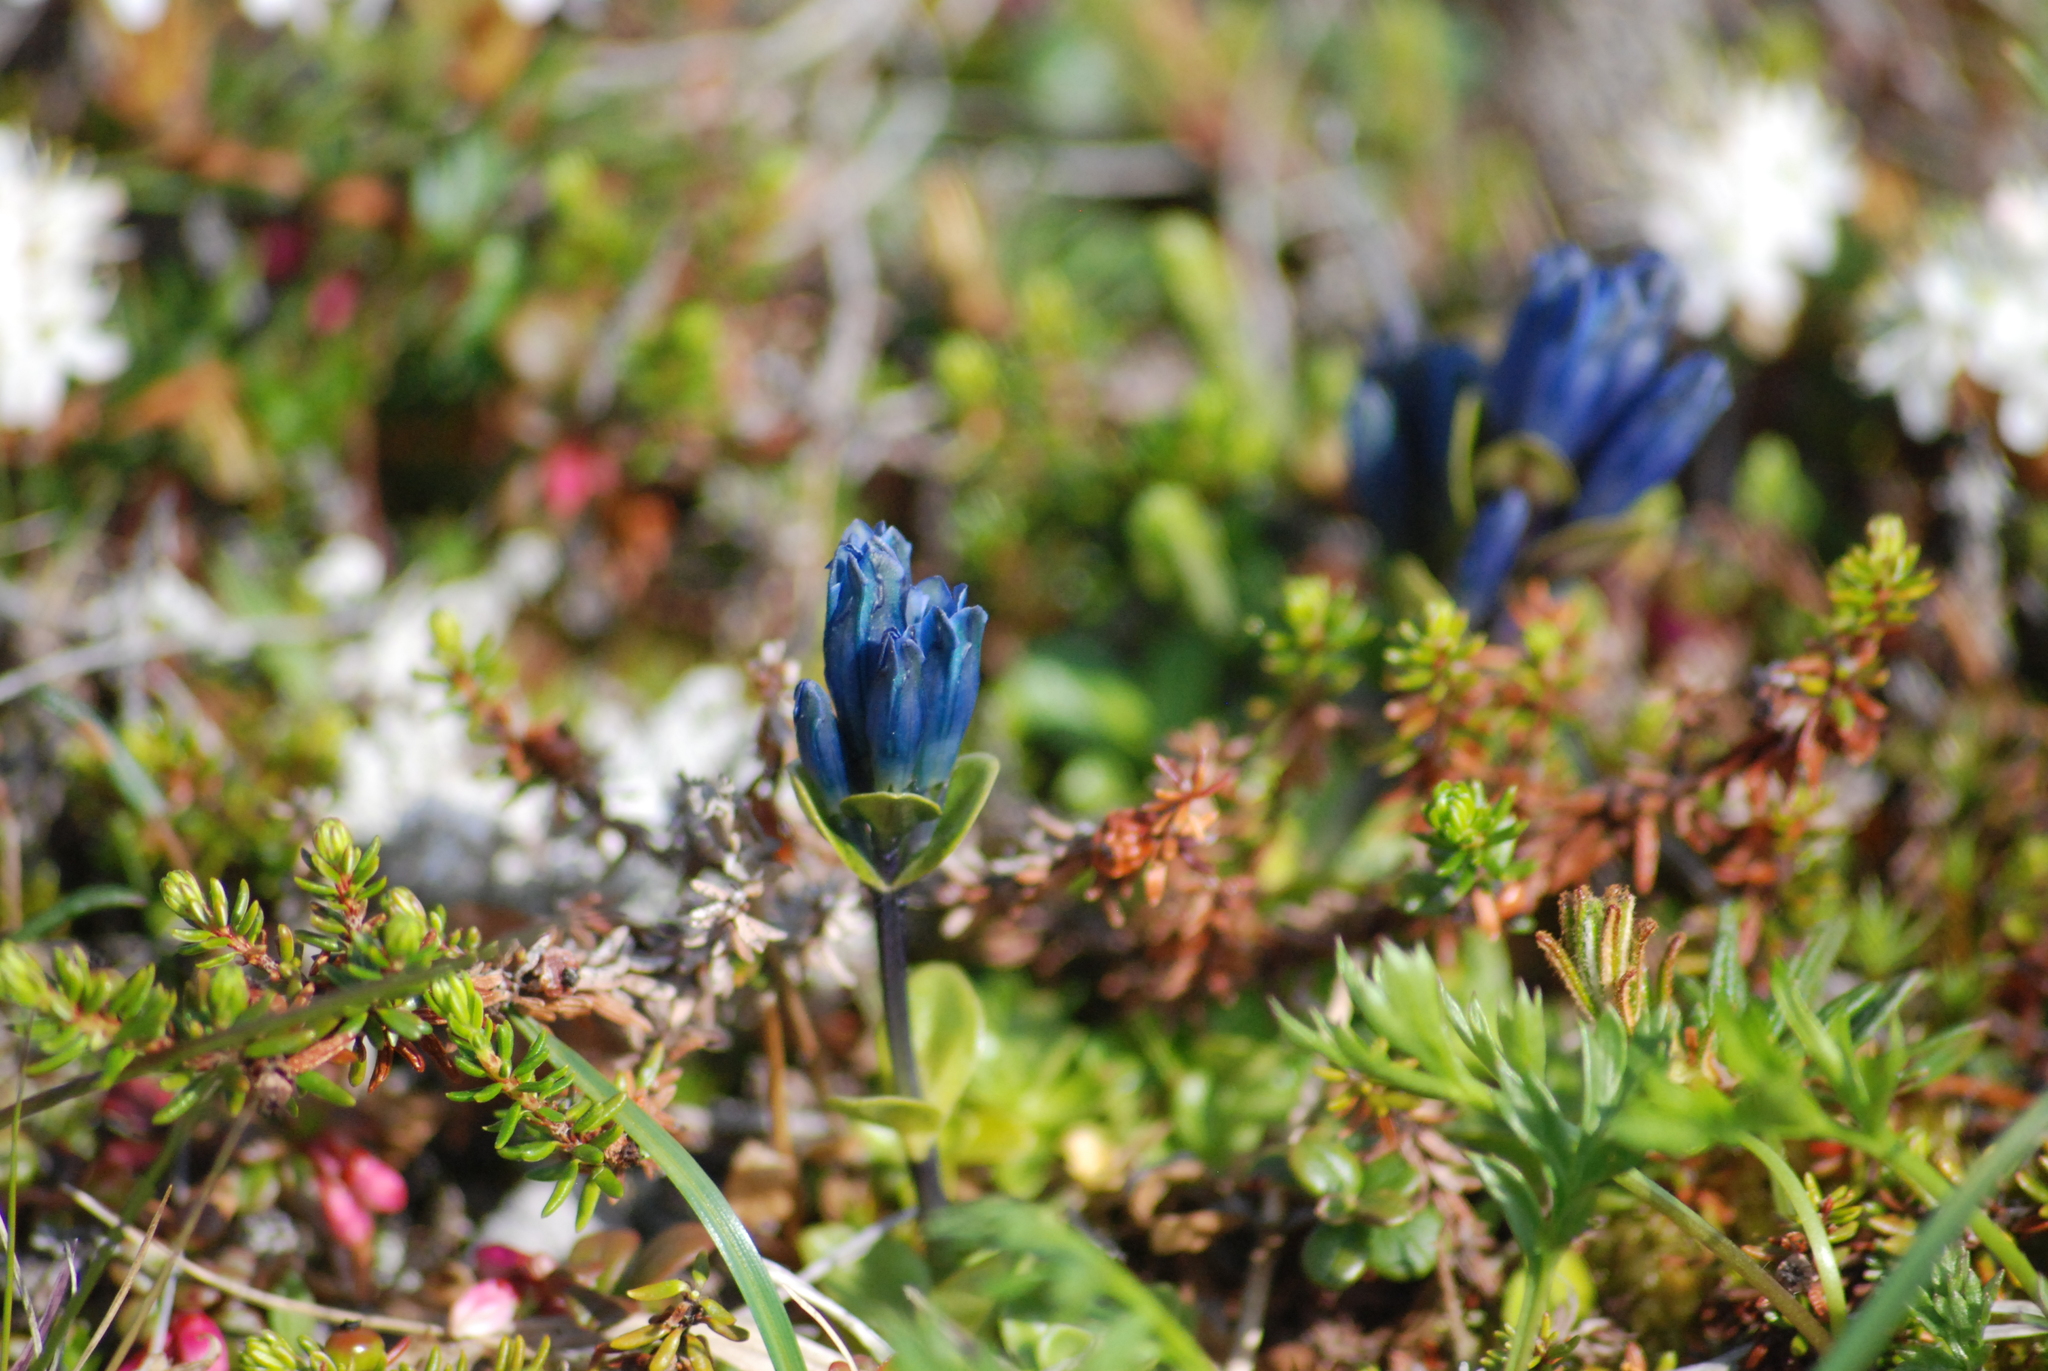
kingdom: Plantae
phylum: Tracheophyta
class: Magnoliopsida
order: Gentianales
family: Gentianaceae
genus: Gentiana
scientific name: Gentiana glauca
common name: Alpine gentian
